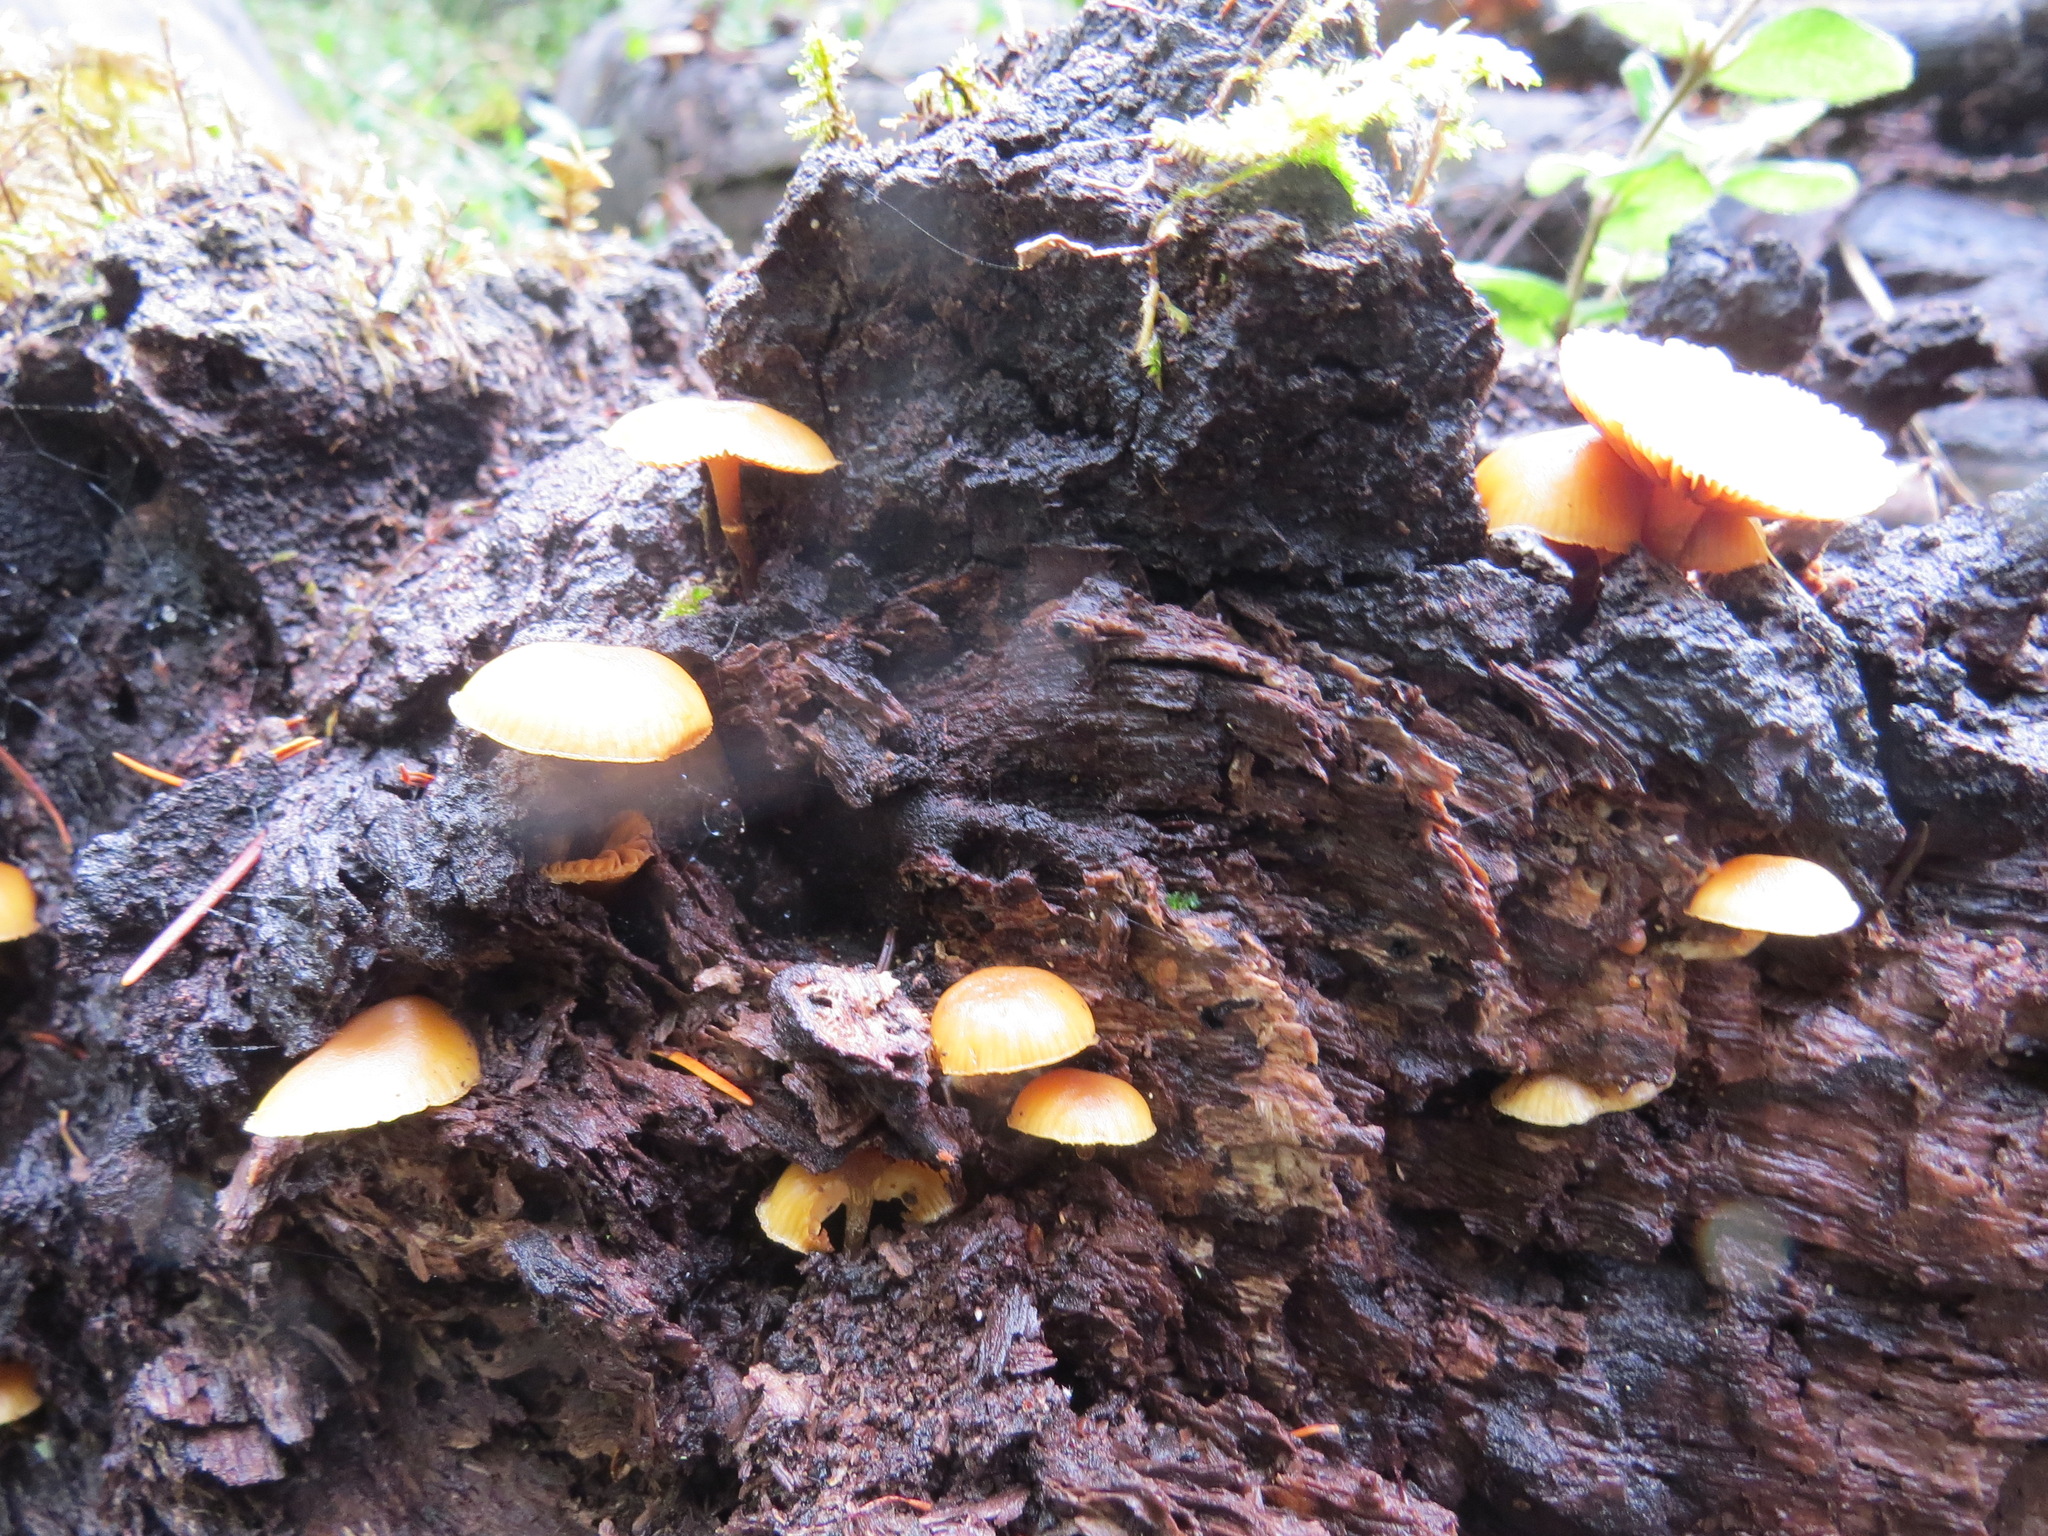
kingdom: Fungi
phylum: Basidiomycota
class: Agaricomycetes
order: Agaricales
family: Hymenogastraceae
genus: Galerina
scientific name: Galerina marginata
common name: Funeral bell
